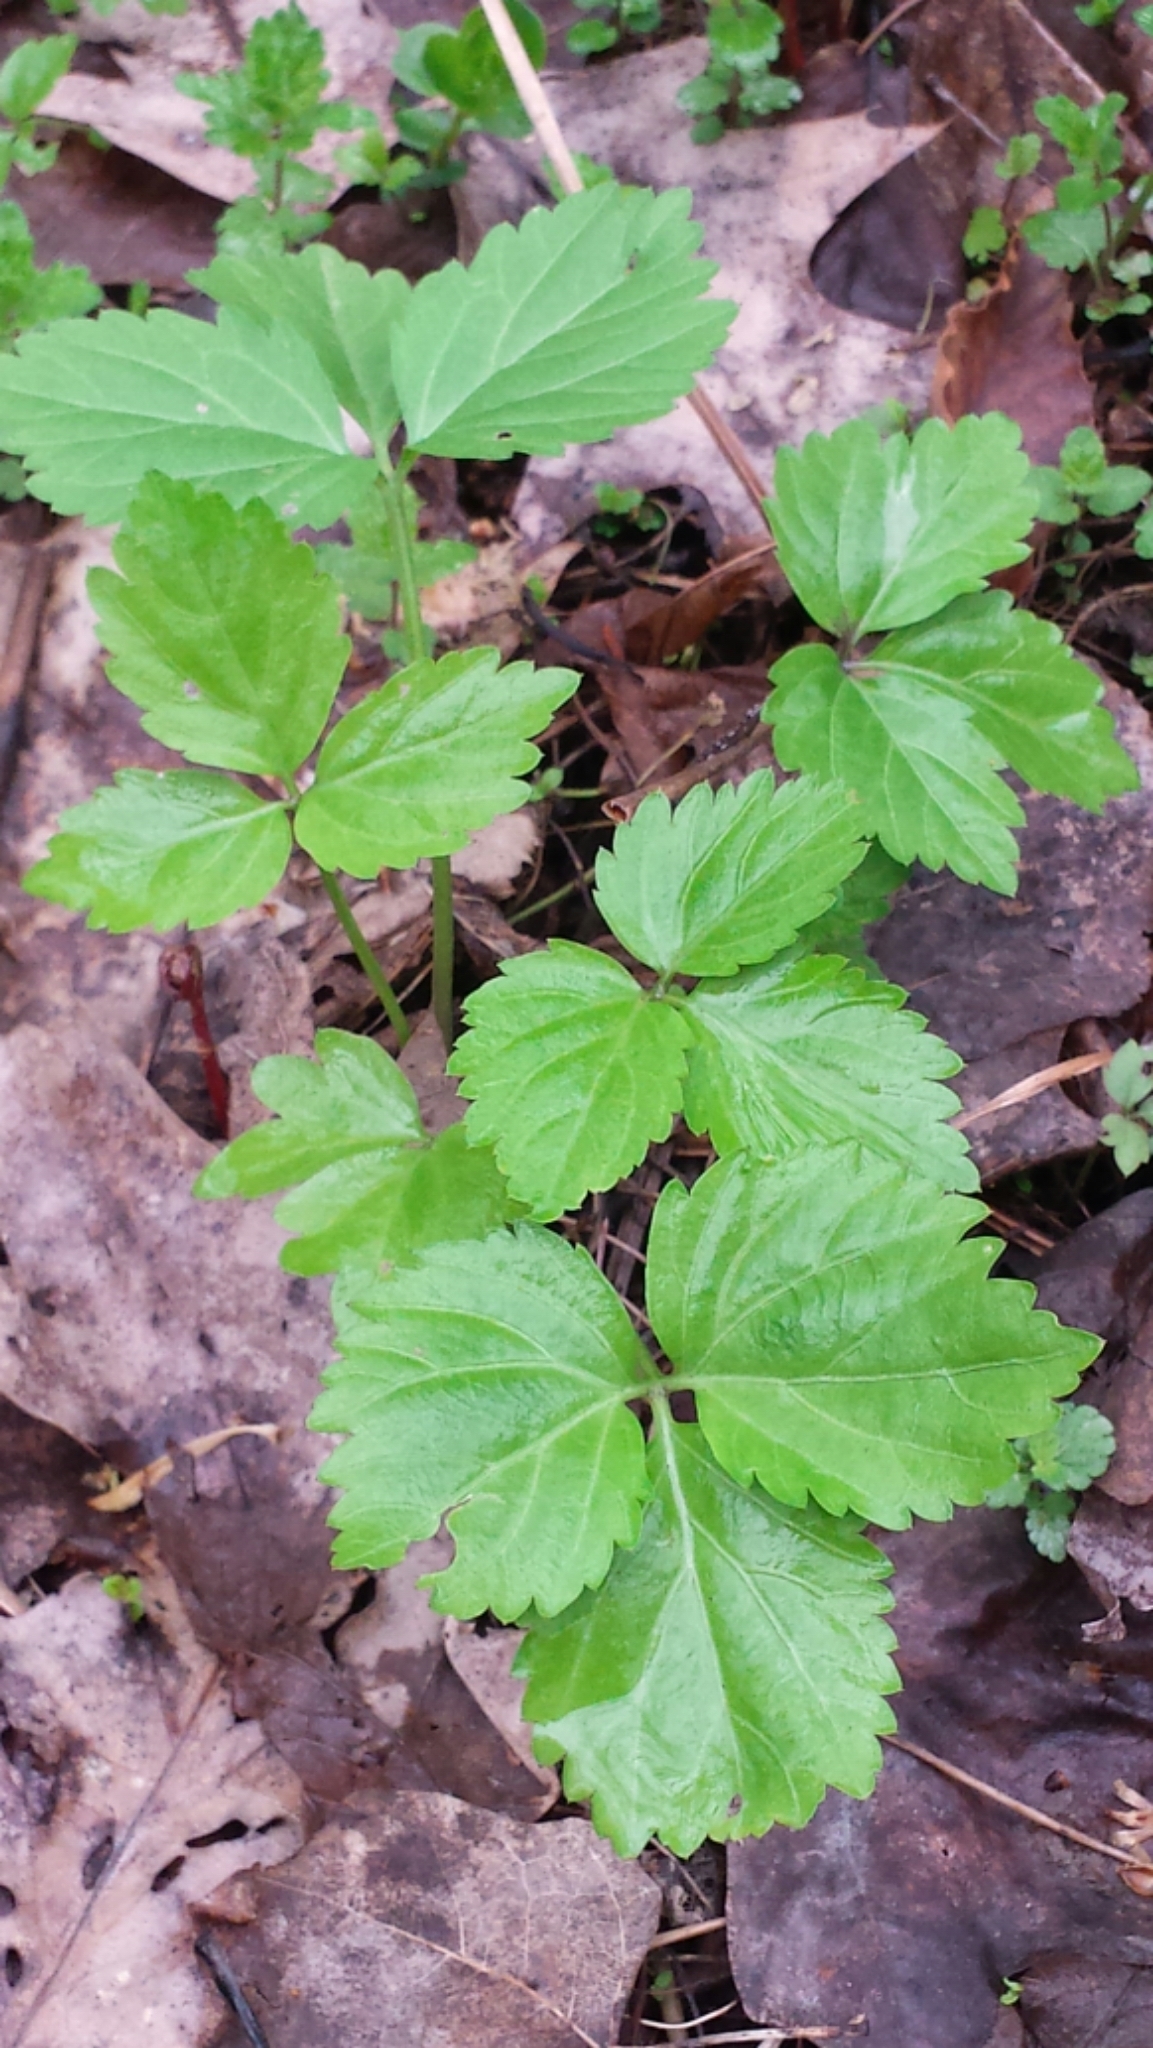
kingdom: Plantae
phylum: Tracheophyta
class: Magnoliopsida
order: Brassicales
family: Brassicaceae
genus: Cardamine
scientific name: Cardamine diphylla
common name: Broad-leaved toothwort
